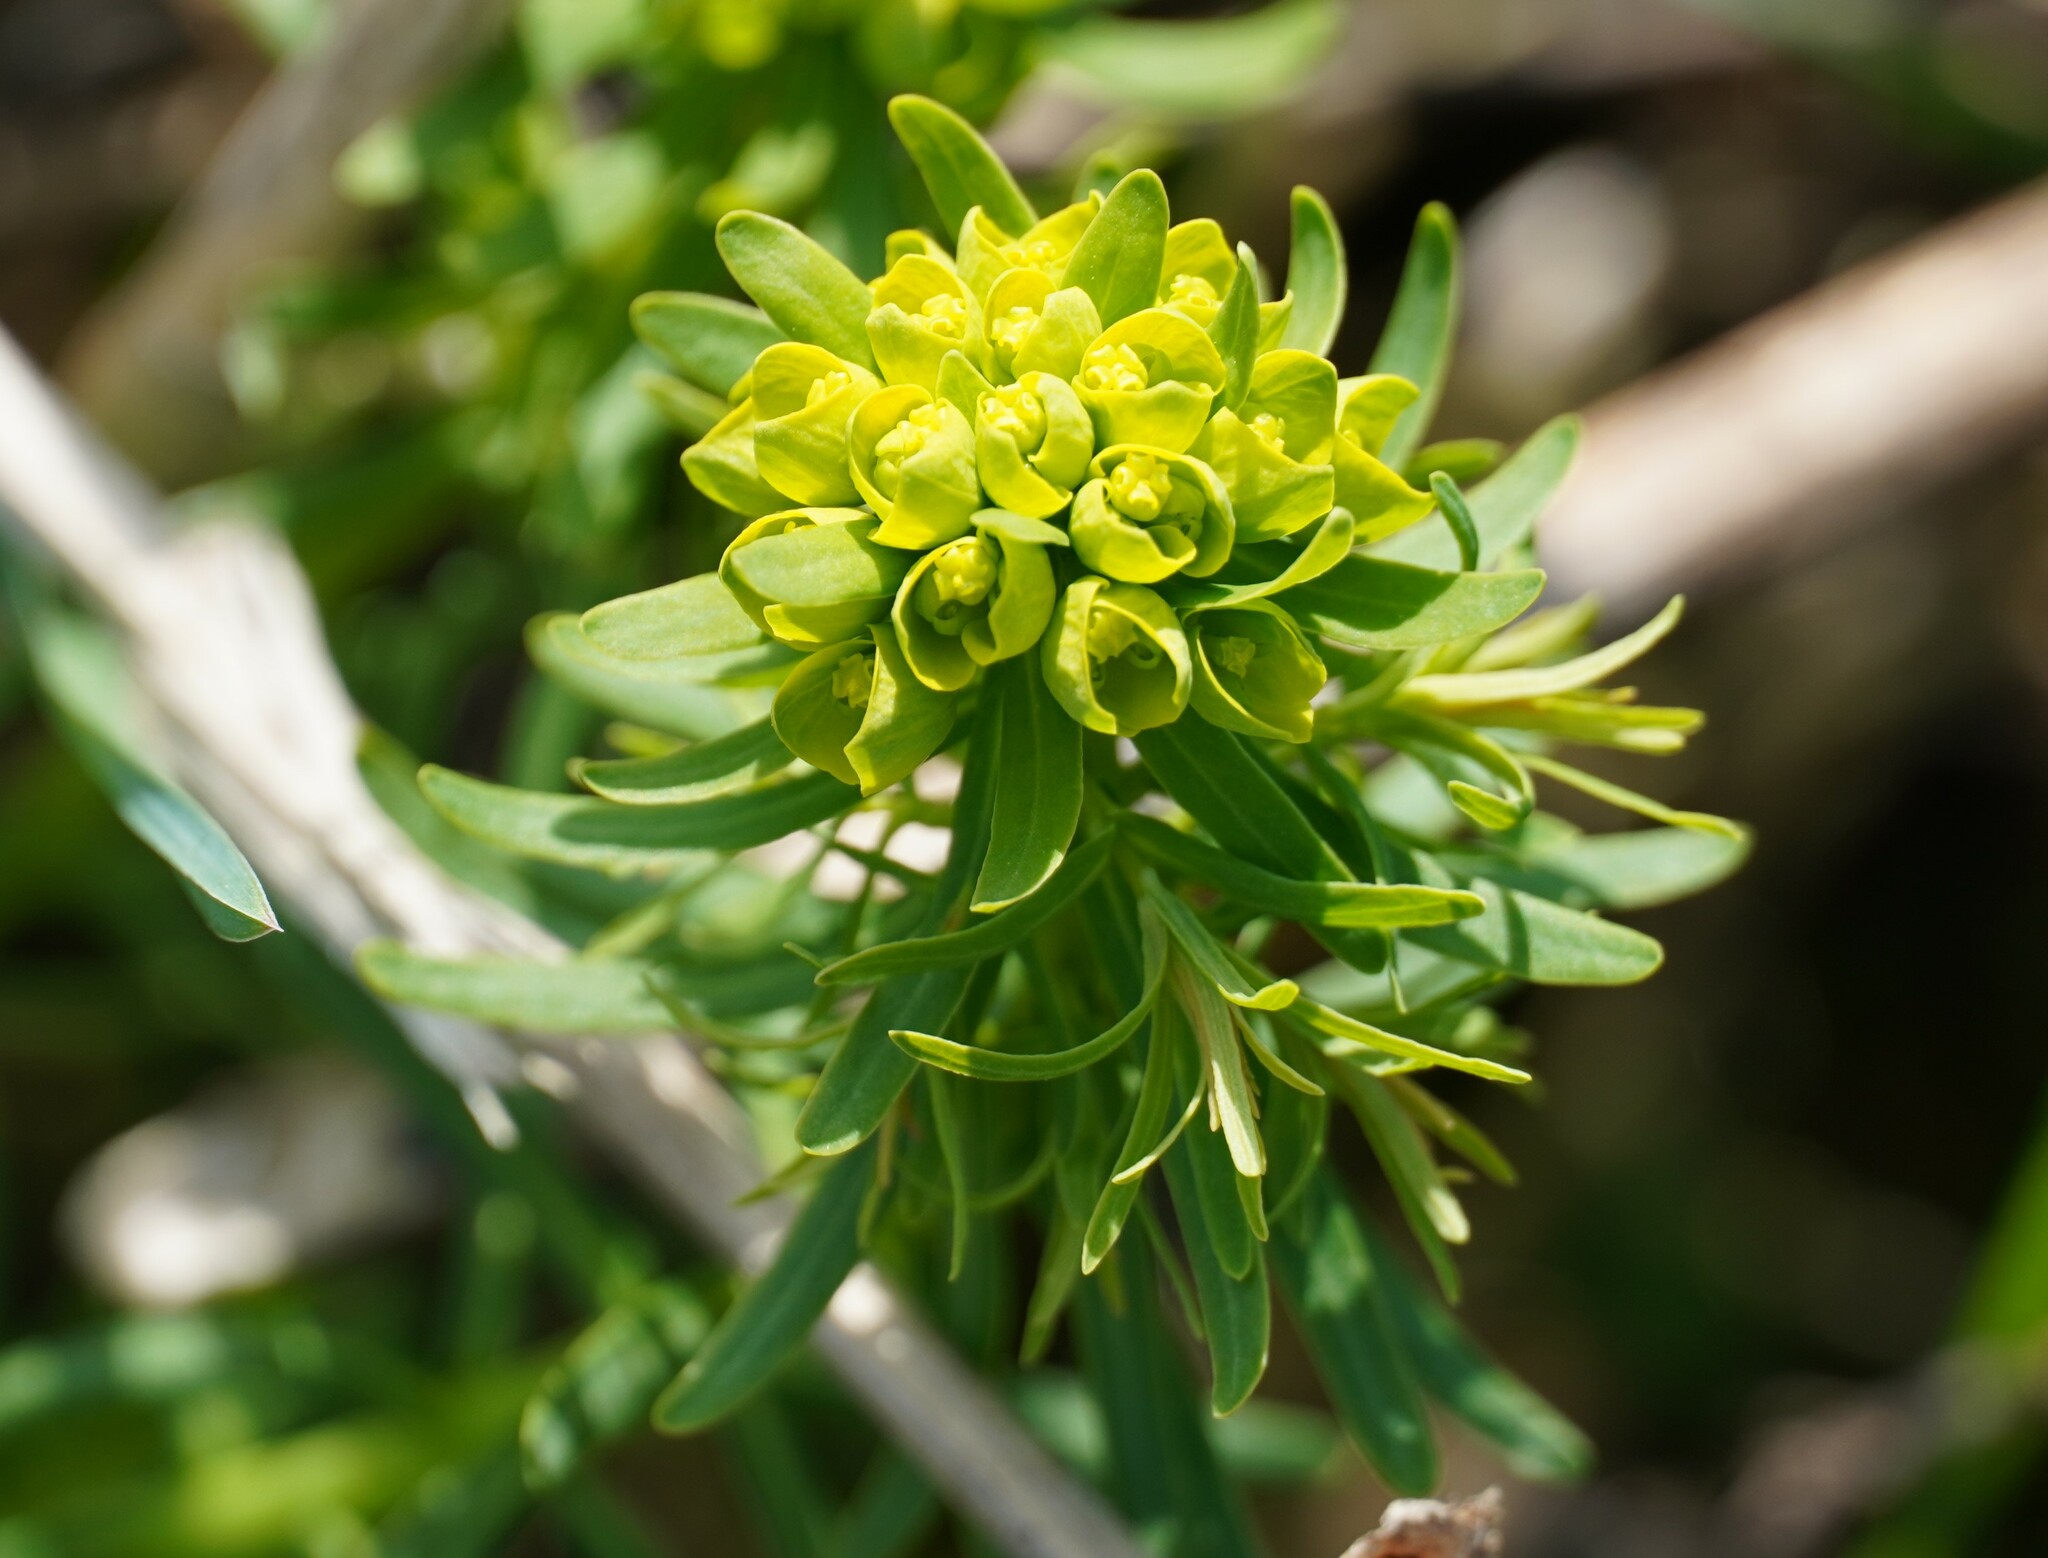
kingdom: Plantae
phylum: Tracheophyta
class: Magnoliopsida
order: Malpighiales
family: Euphorbiaceae
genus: Euphorbia
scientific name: Euphorbia cyparissias
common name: Cypress spurge
